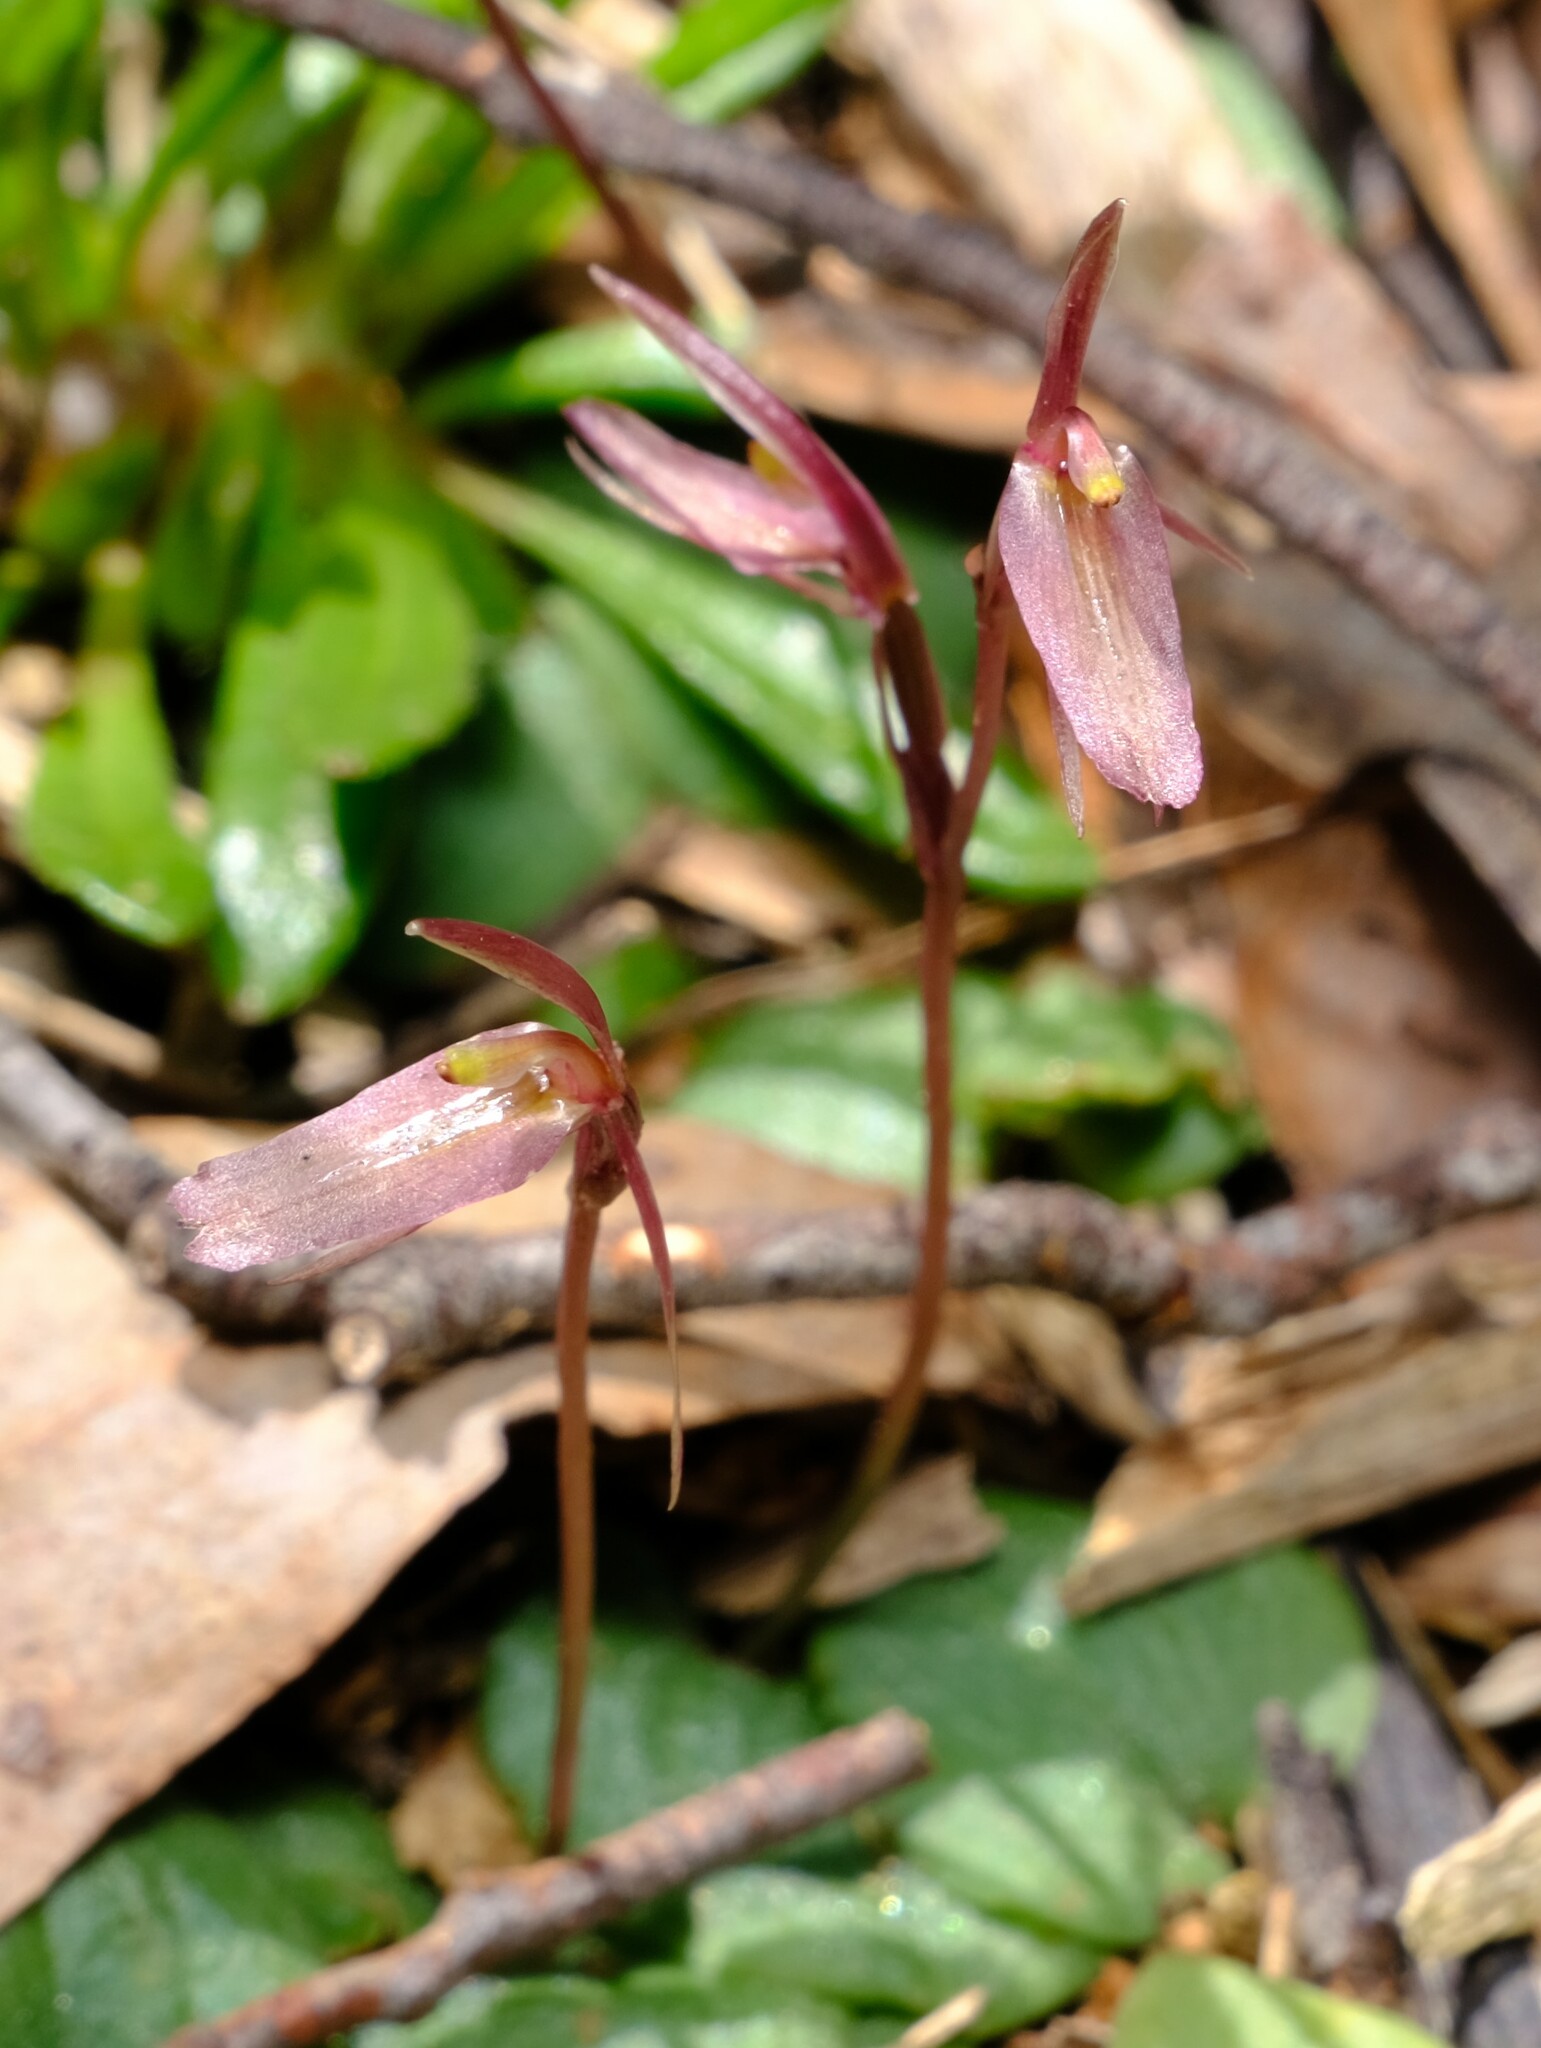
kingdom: Plantae
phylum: Tracheophyta
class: Liliopsida
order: Asparagales
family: Orchidaceae
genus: Cyrtostylis
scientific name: Cyrtostylis reniformis
